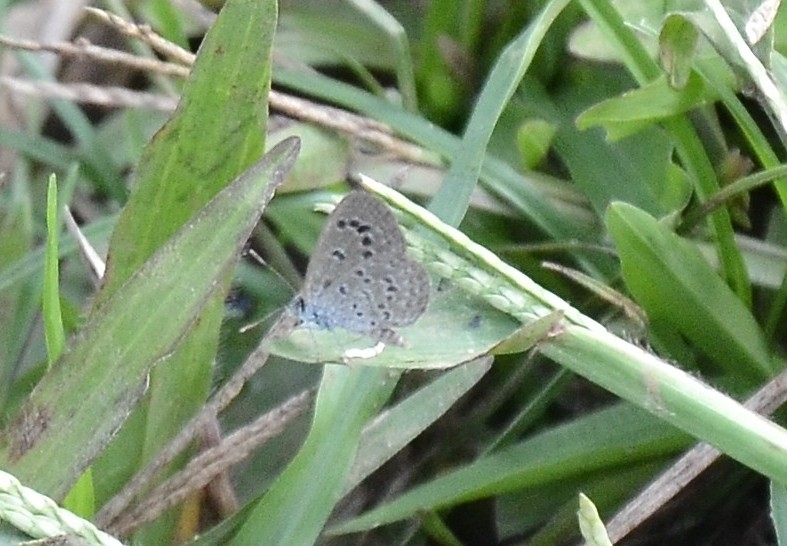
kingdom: Animalia
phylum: Arthropoda
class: Insecta
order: Lepidoptera
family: Lycaenidae
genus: Zizina
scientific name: Zizina otis
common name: Lesser grass blue
